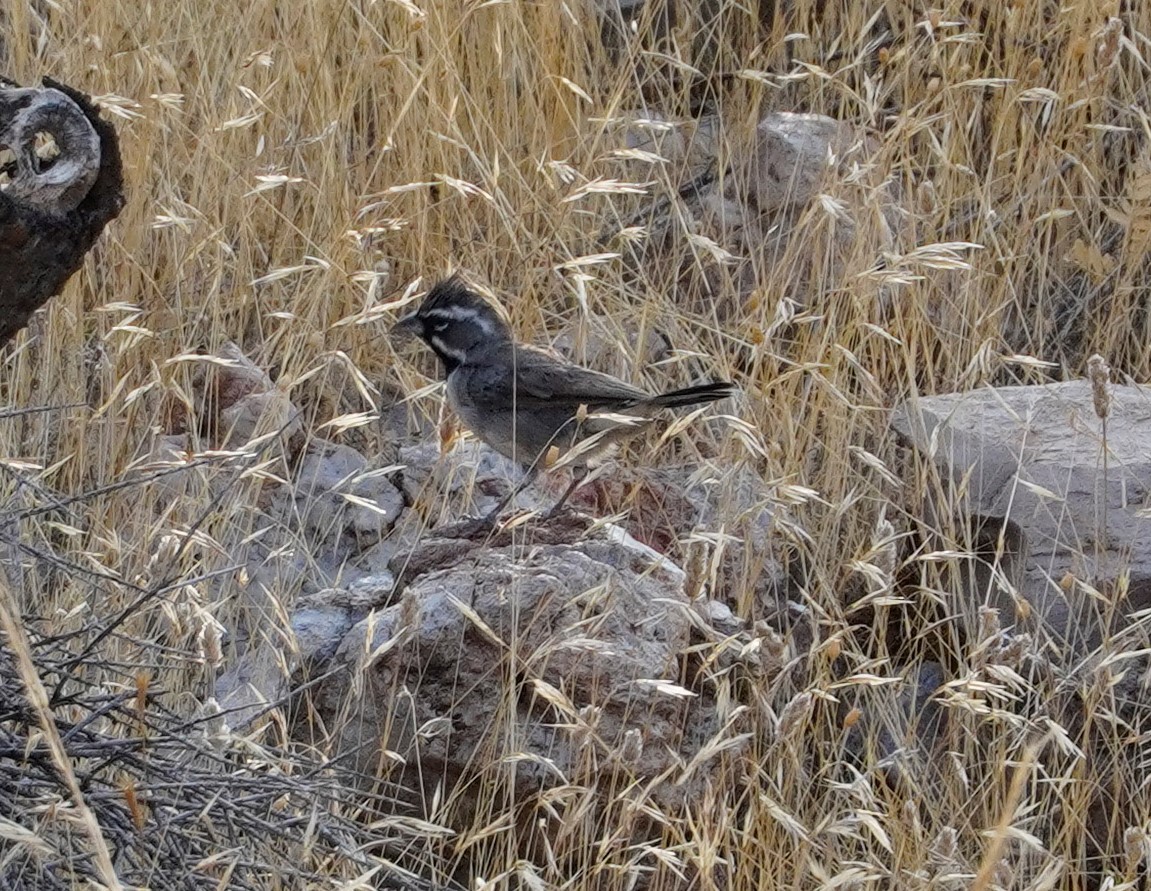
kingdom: Animalia
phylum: Chordata
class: Aves
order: Passeriformes
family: Passerellidae
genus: Amphispiza
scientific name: Amphispiza bilineata
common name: Black-throated sparrow
